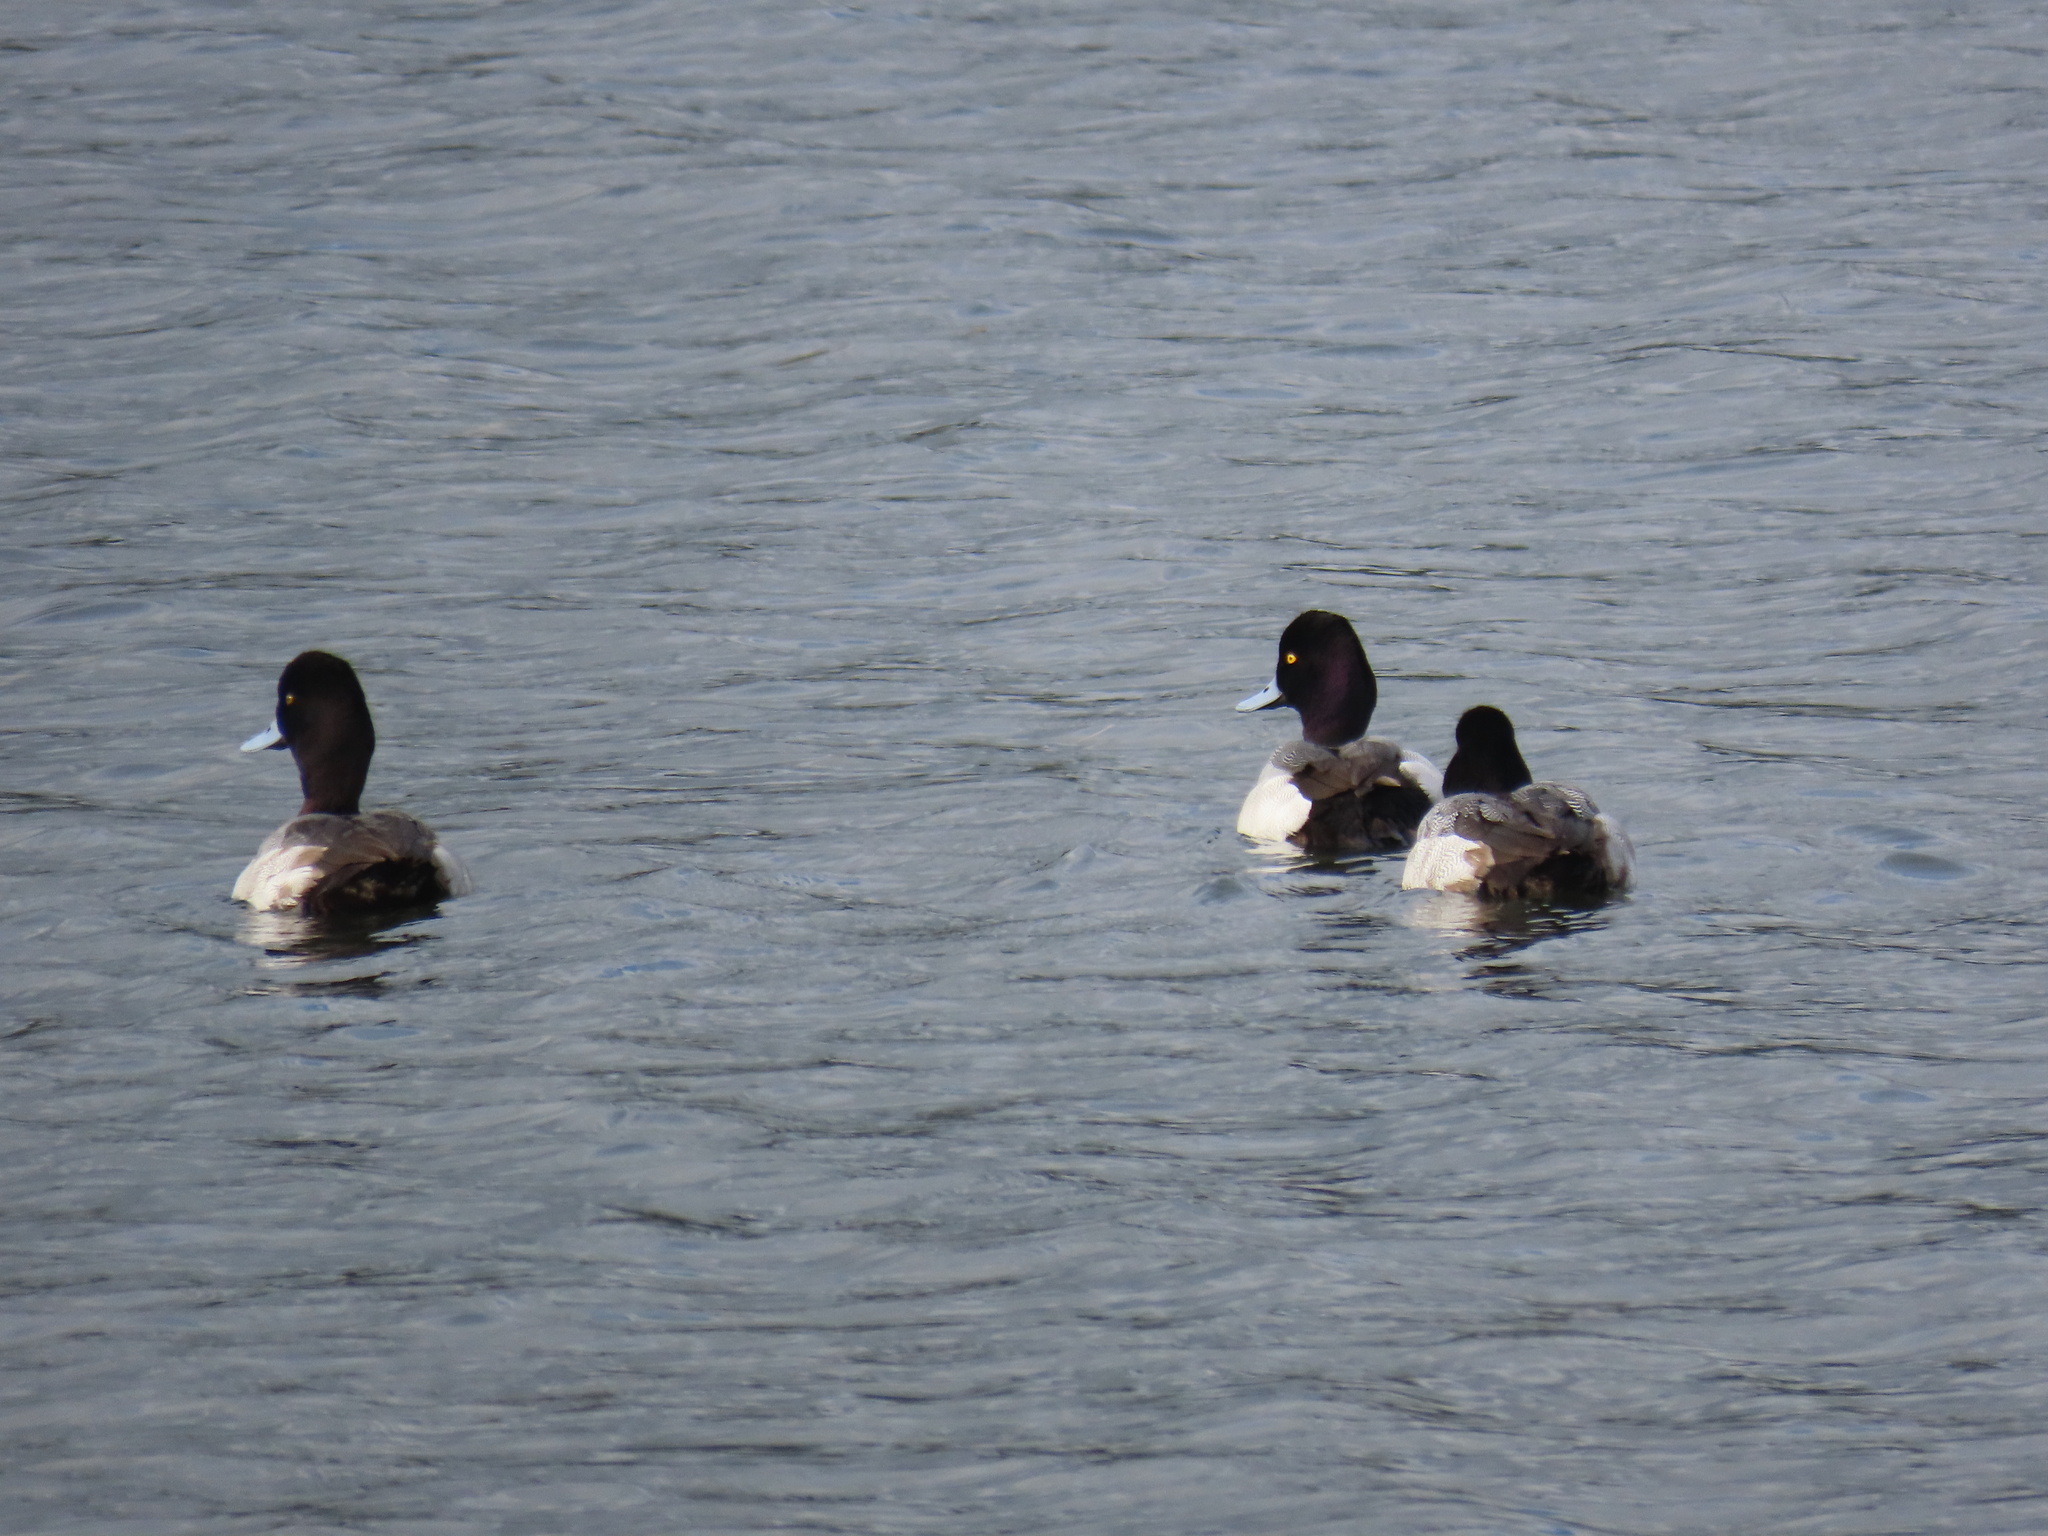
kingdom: Animalia
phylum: Chordata
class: Aves
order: Anseriformes
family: Anatidae
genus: Aythya
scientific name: Aythya affinis
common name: Lesser scaup
